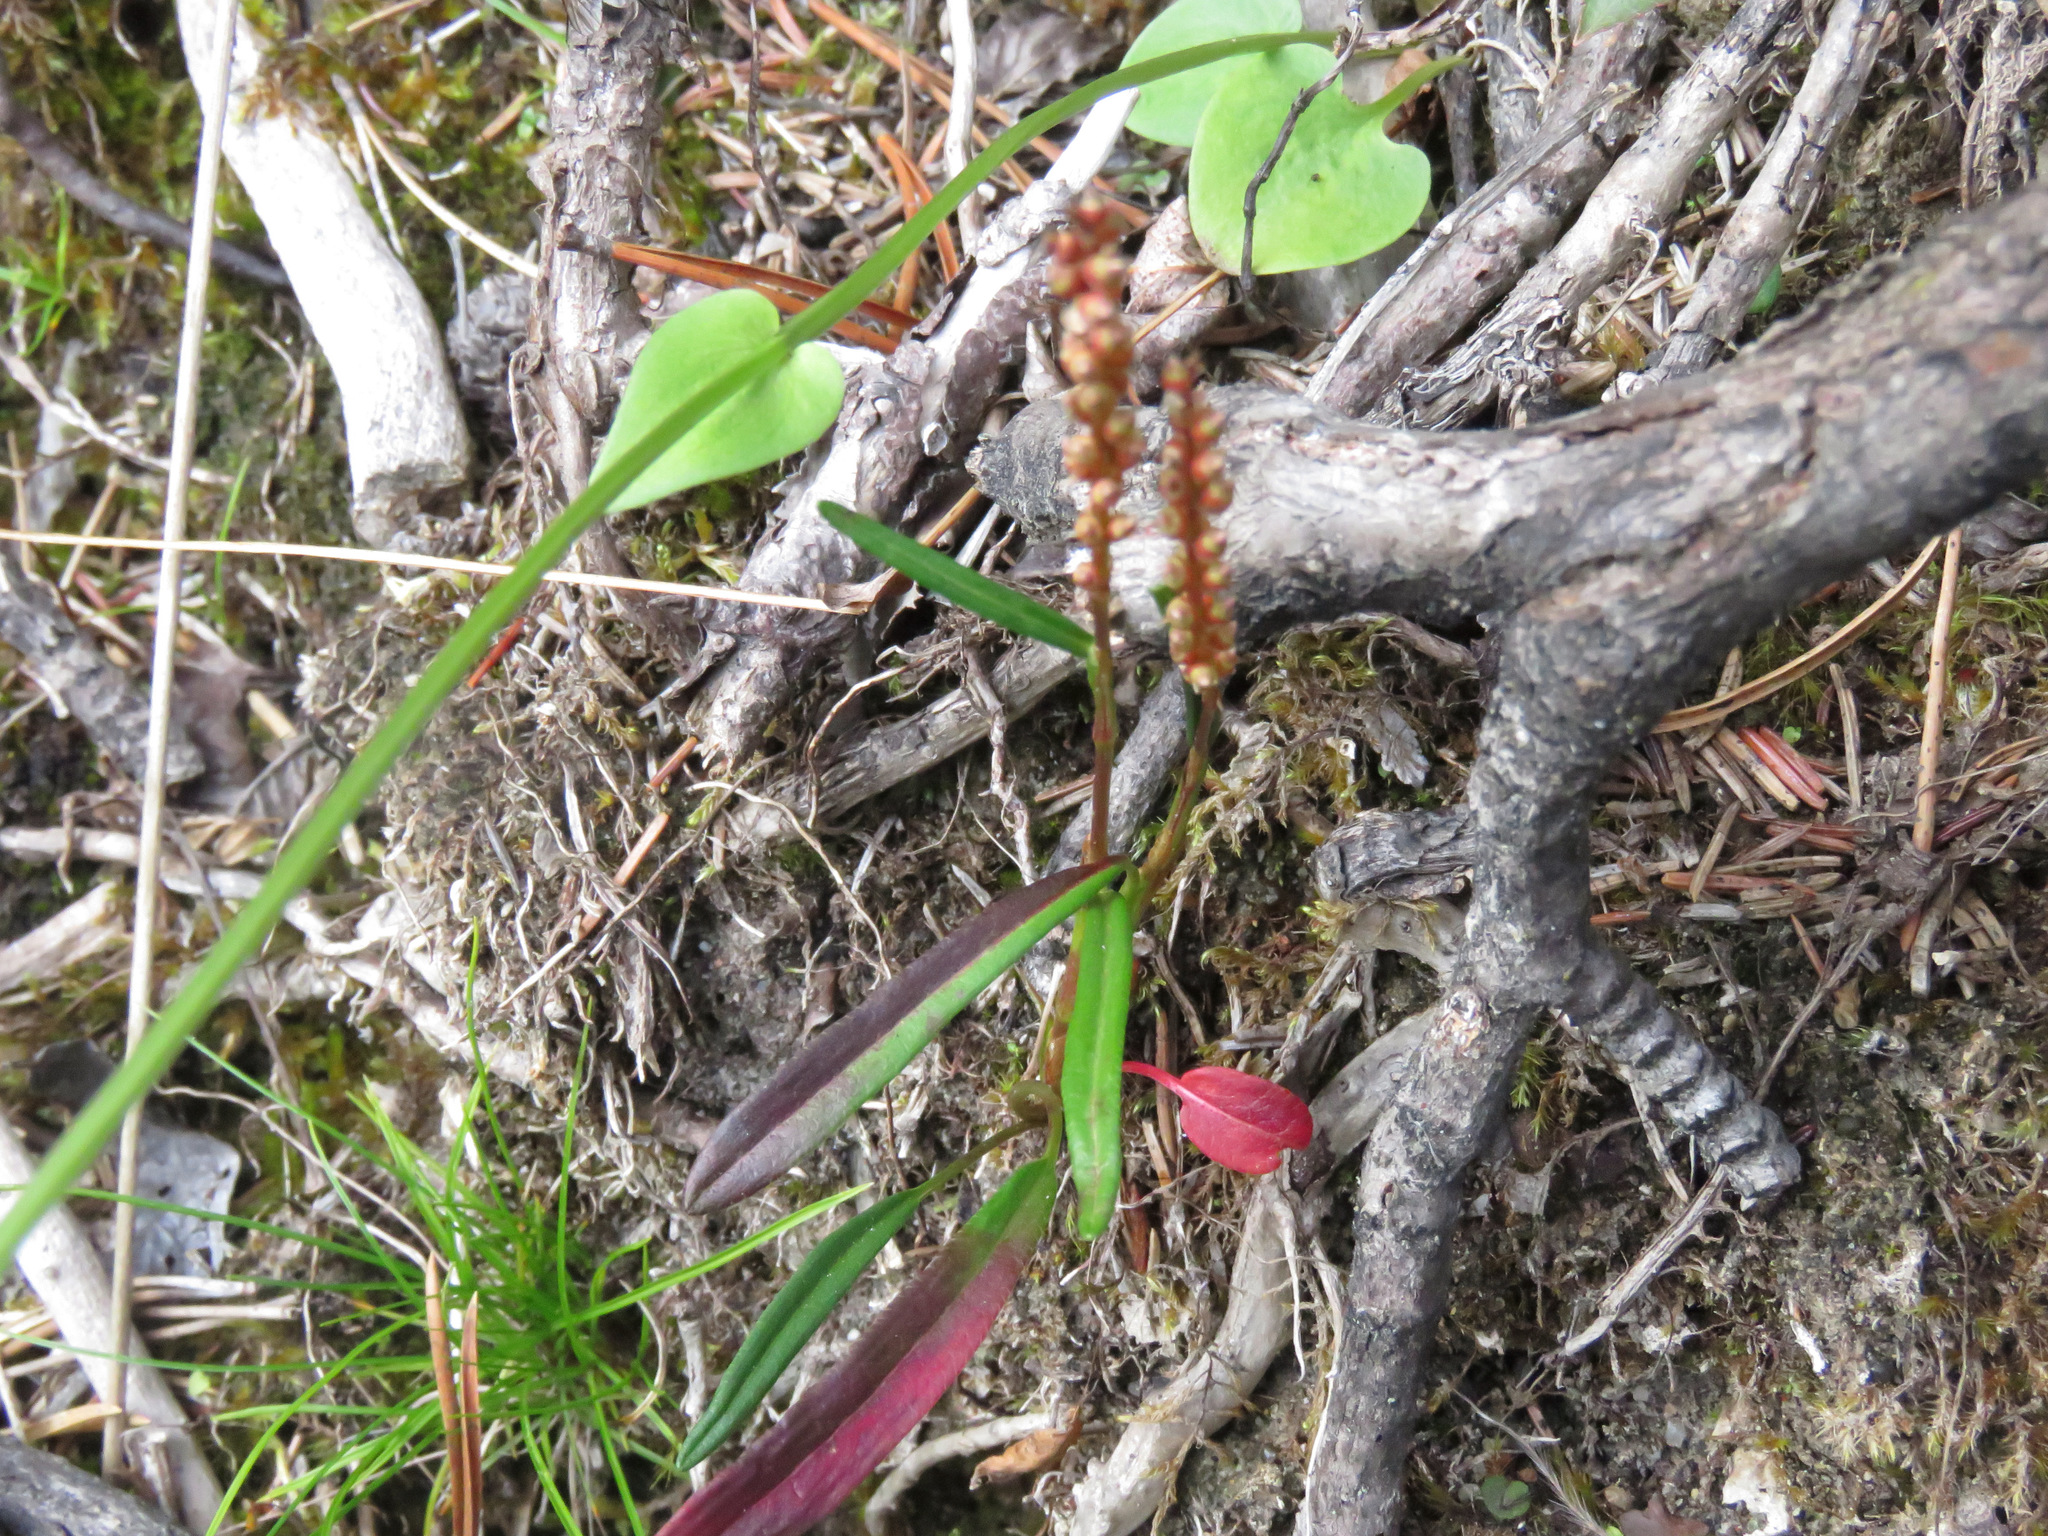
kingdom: Plantae
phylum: Tracheophyta
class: Magnoliopsida
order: Caryophyllales
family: Polygonaceae
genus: Bistorta
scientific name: Bistorta vivipara
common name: Alpine bistort
